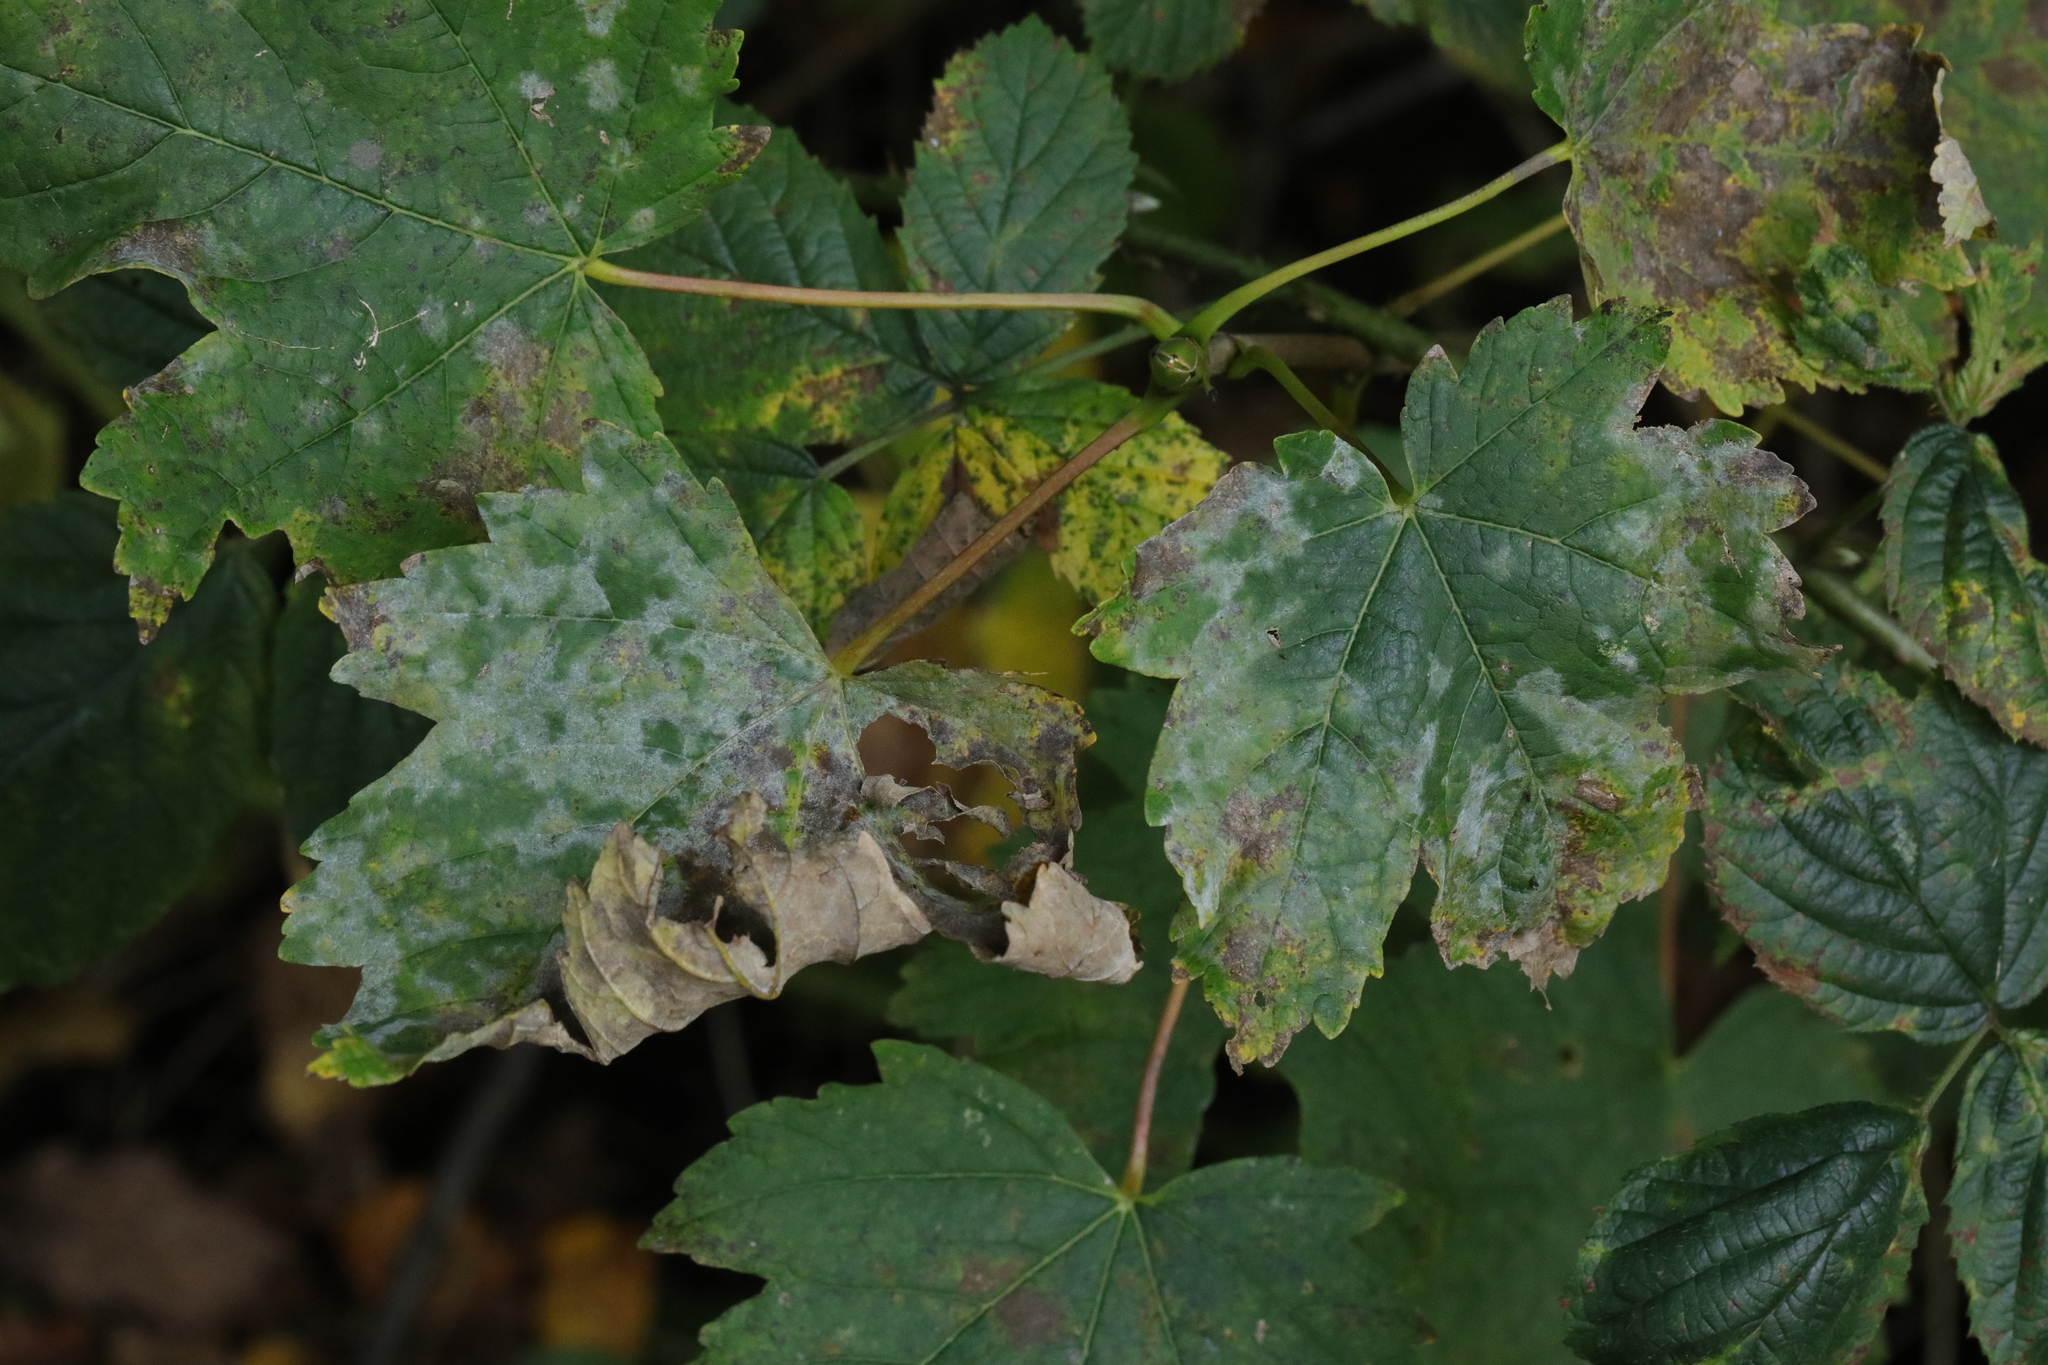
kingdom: Fungi
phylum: Ascomycota
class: Leotiomycetes
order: Helotiales
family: Erysiphaceae
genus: Sawadaea
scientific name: Sawadaea bicornis
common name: Maple mildew
